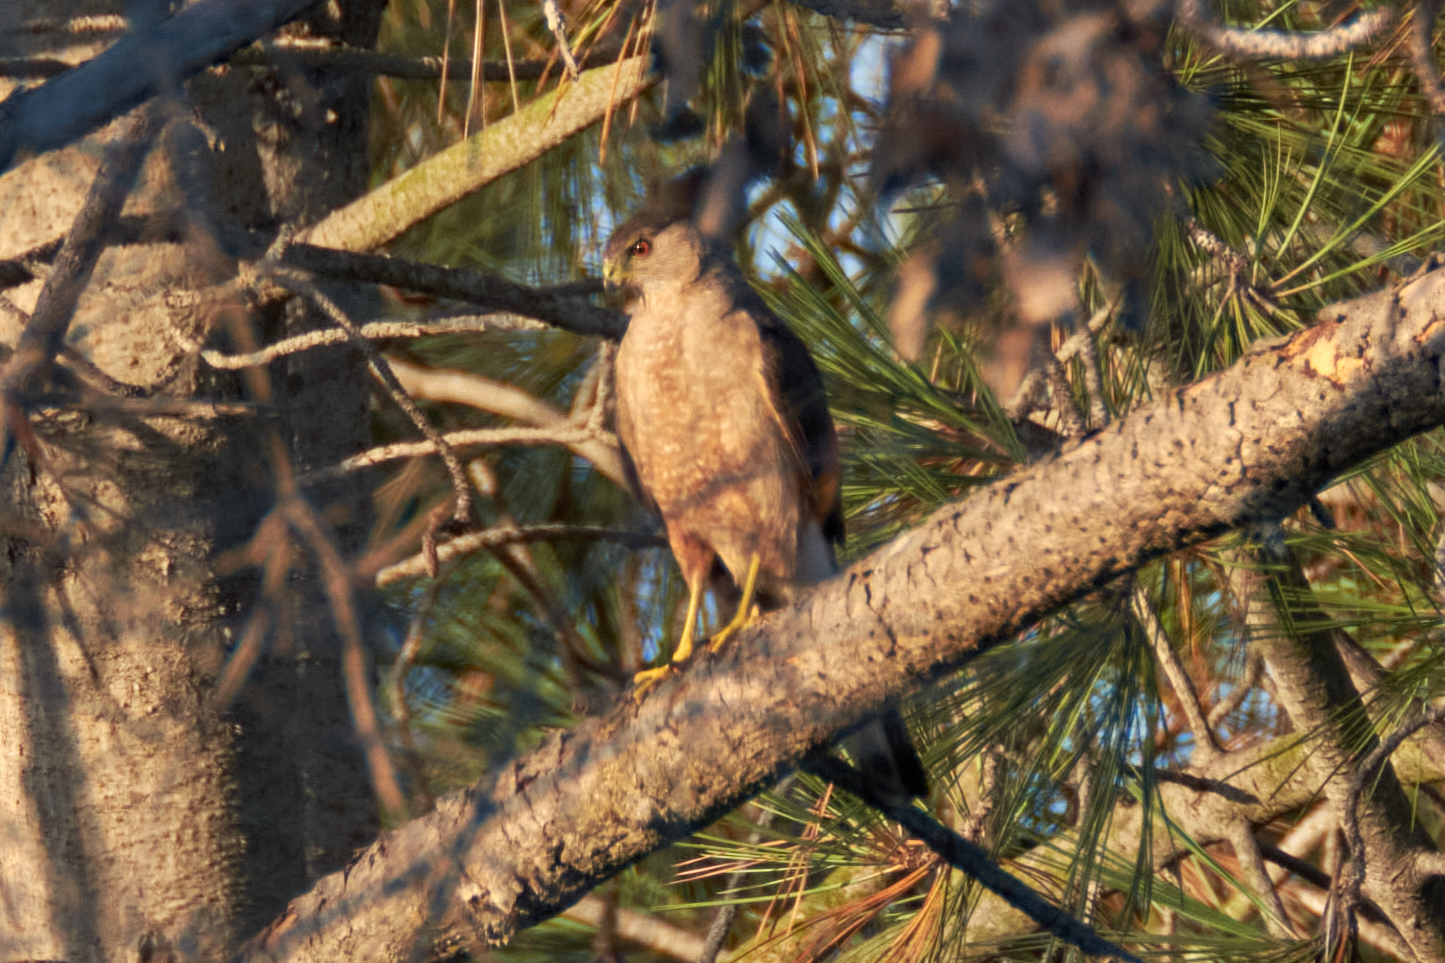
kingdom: Animalia
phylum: Chordata
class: Aves
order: Accipitriformes
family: Accipitridae
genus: Accipiter
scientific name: Accipiter cooperii
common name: Cooper's hawk
